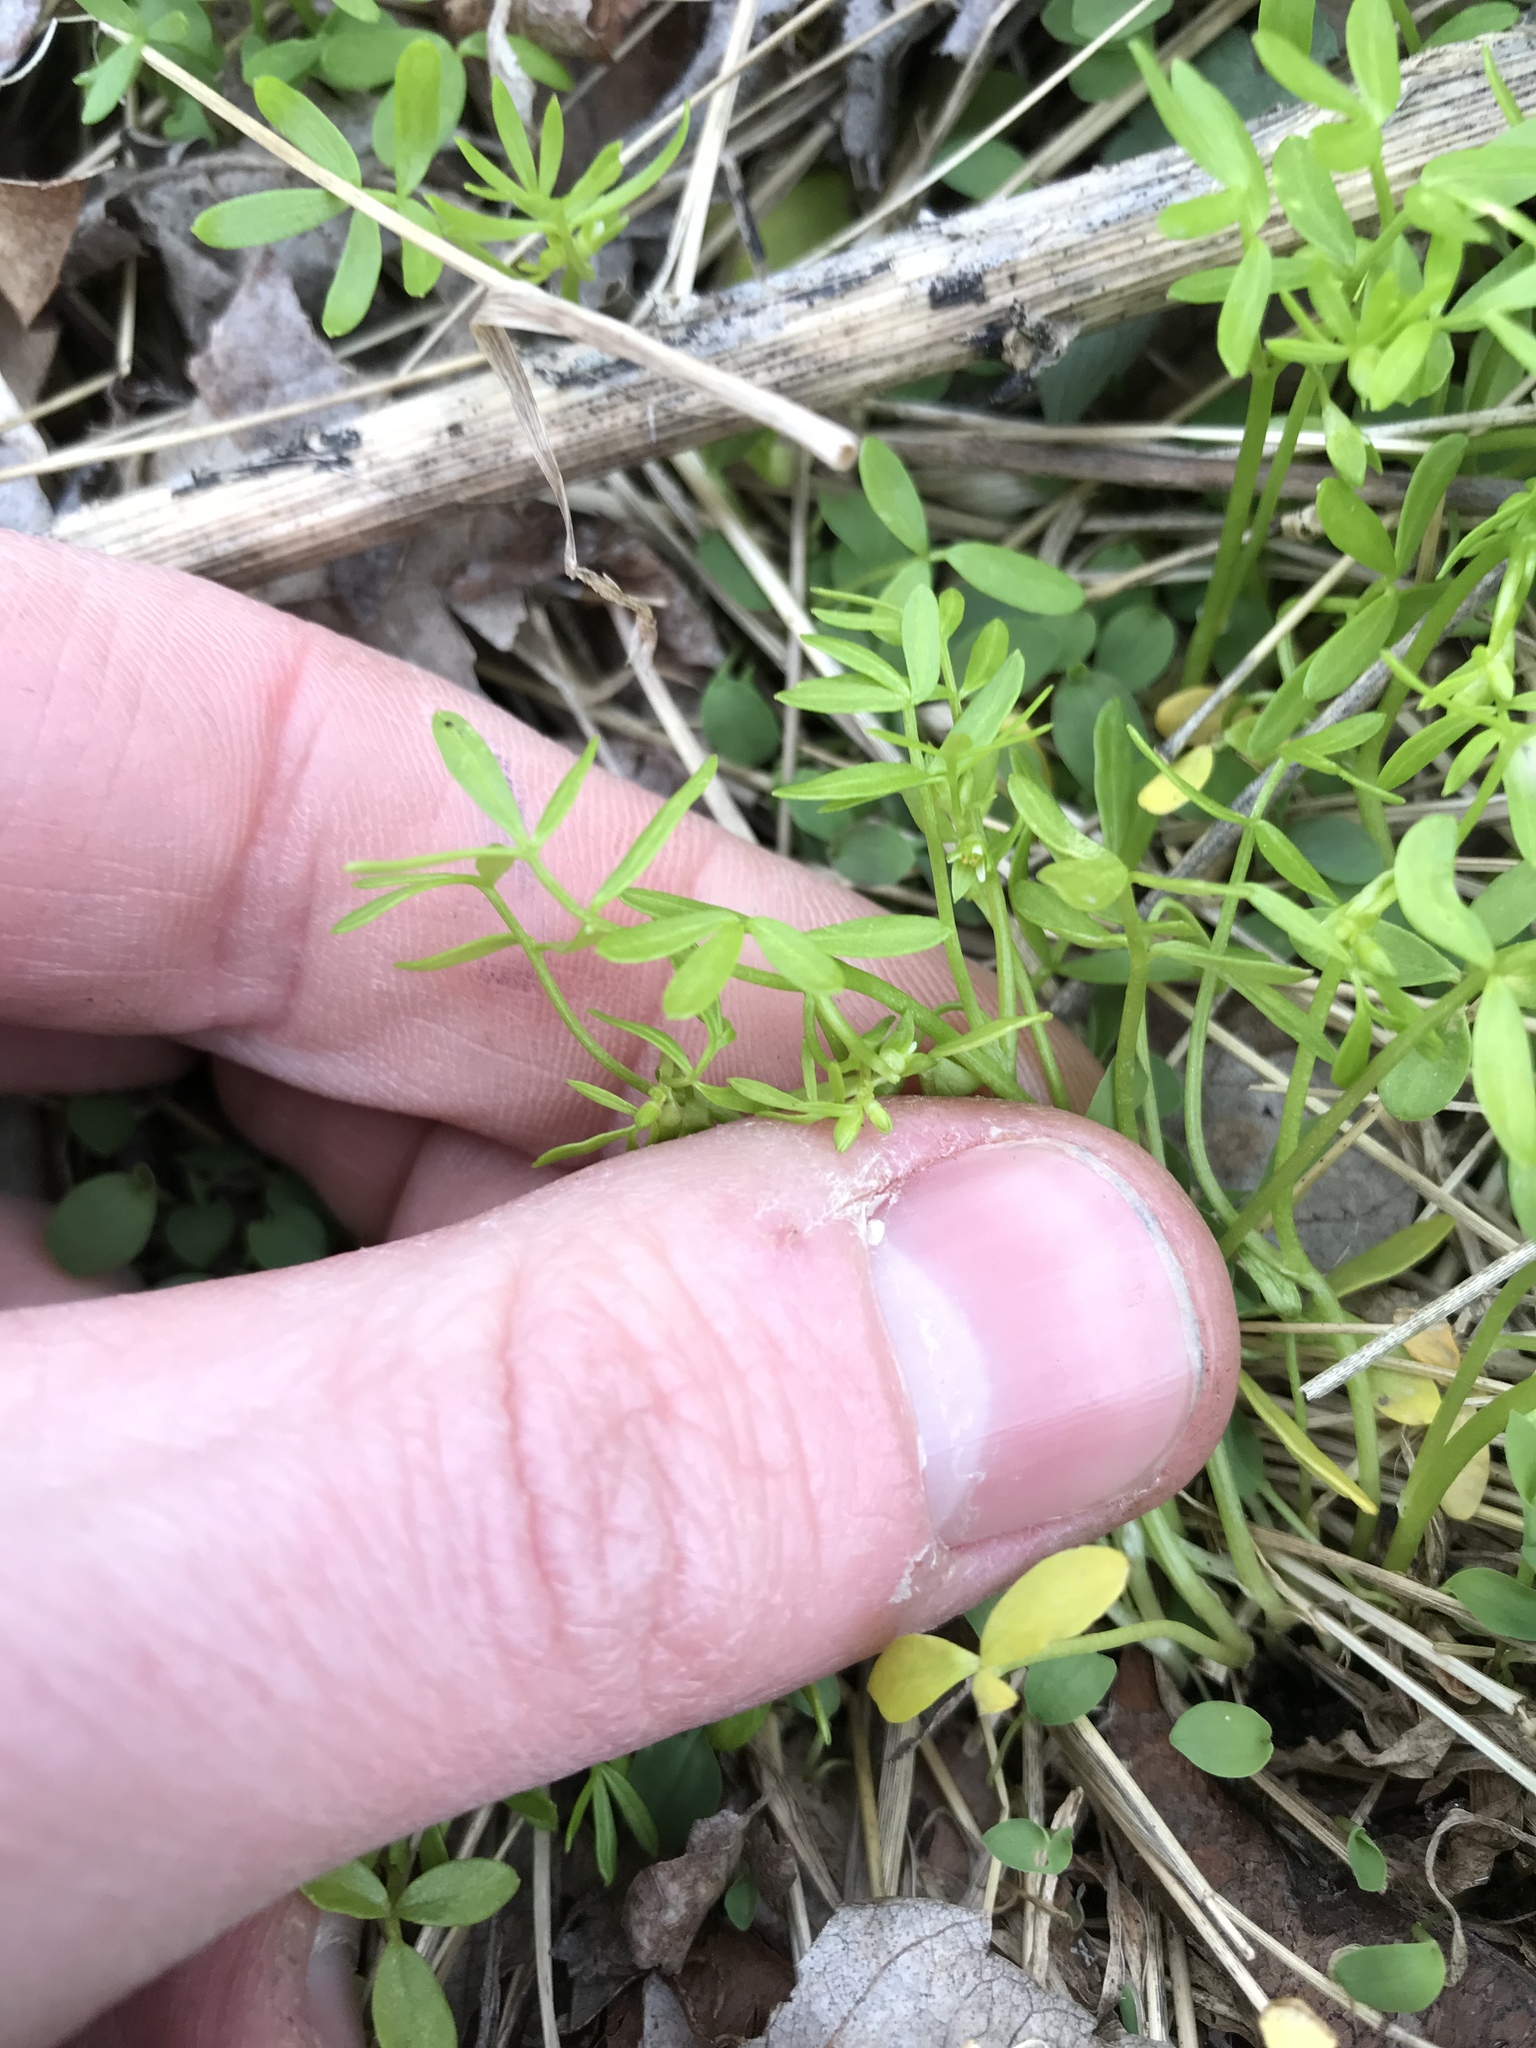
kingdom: Plantae
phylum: Tracheophyta
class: Magnoliopsida
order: Brassicales
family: Limnanthaceae
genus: Floerkea
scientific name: Floerkea proserpinacoides
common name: False mermaid
